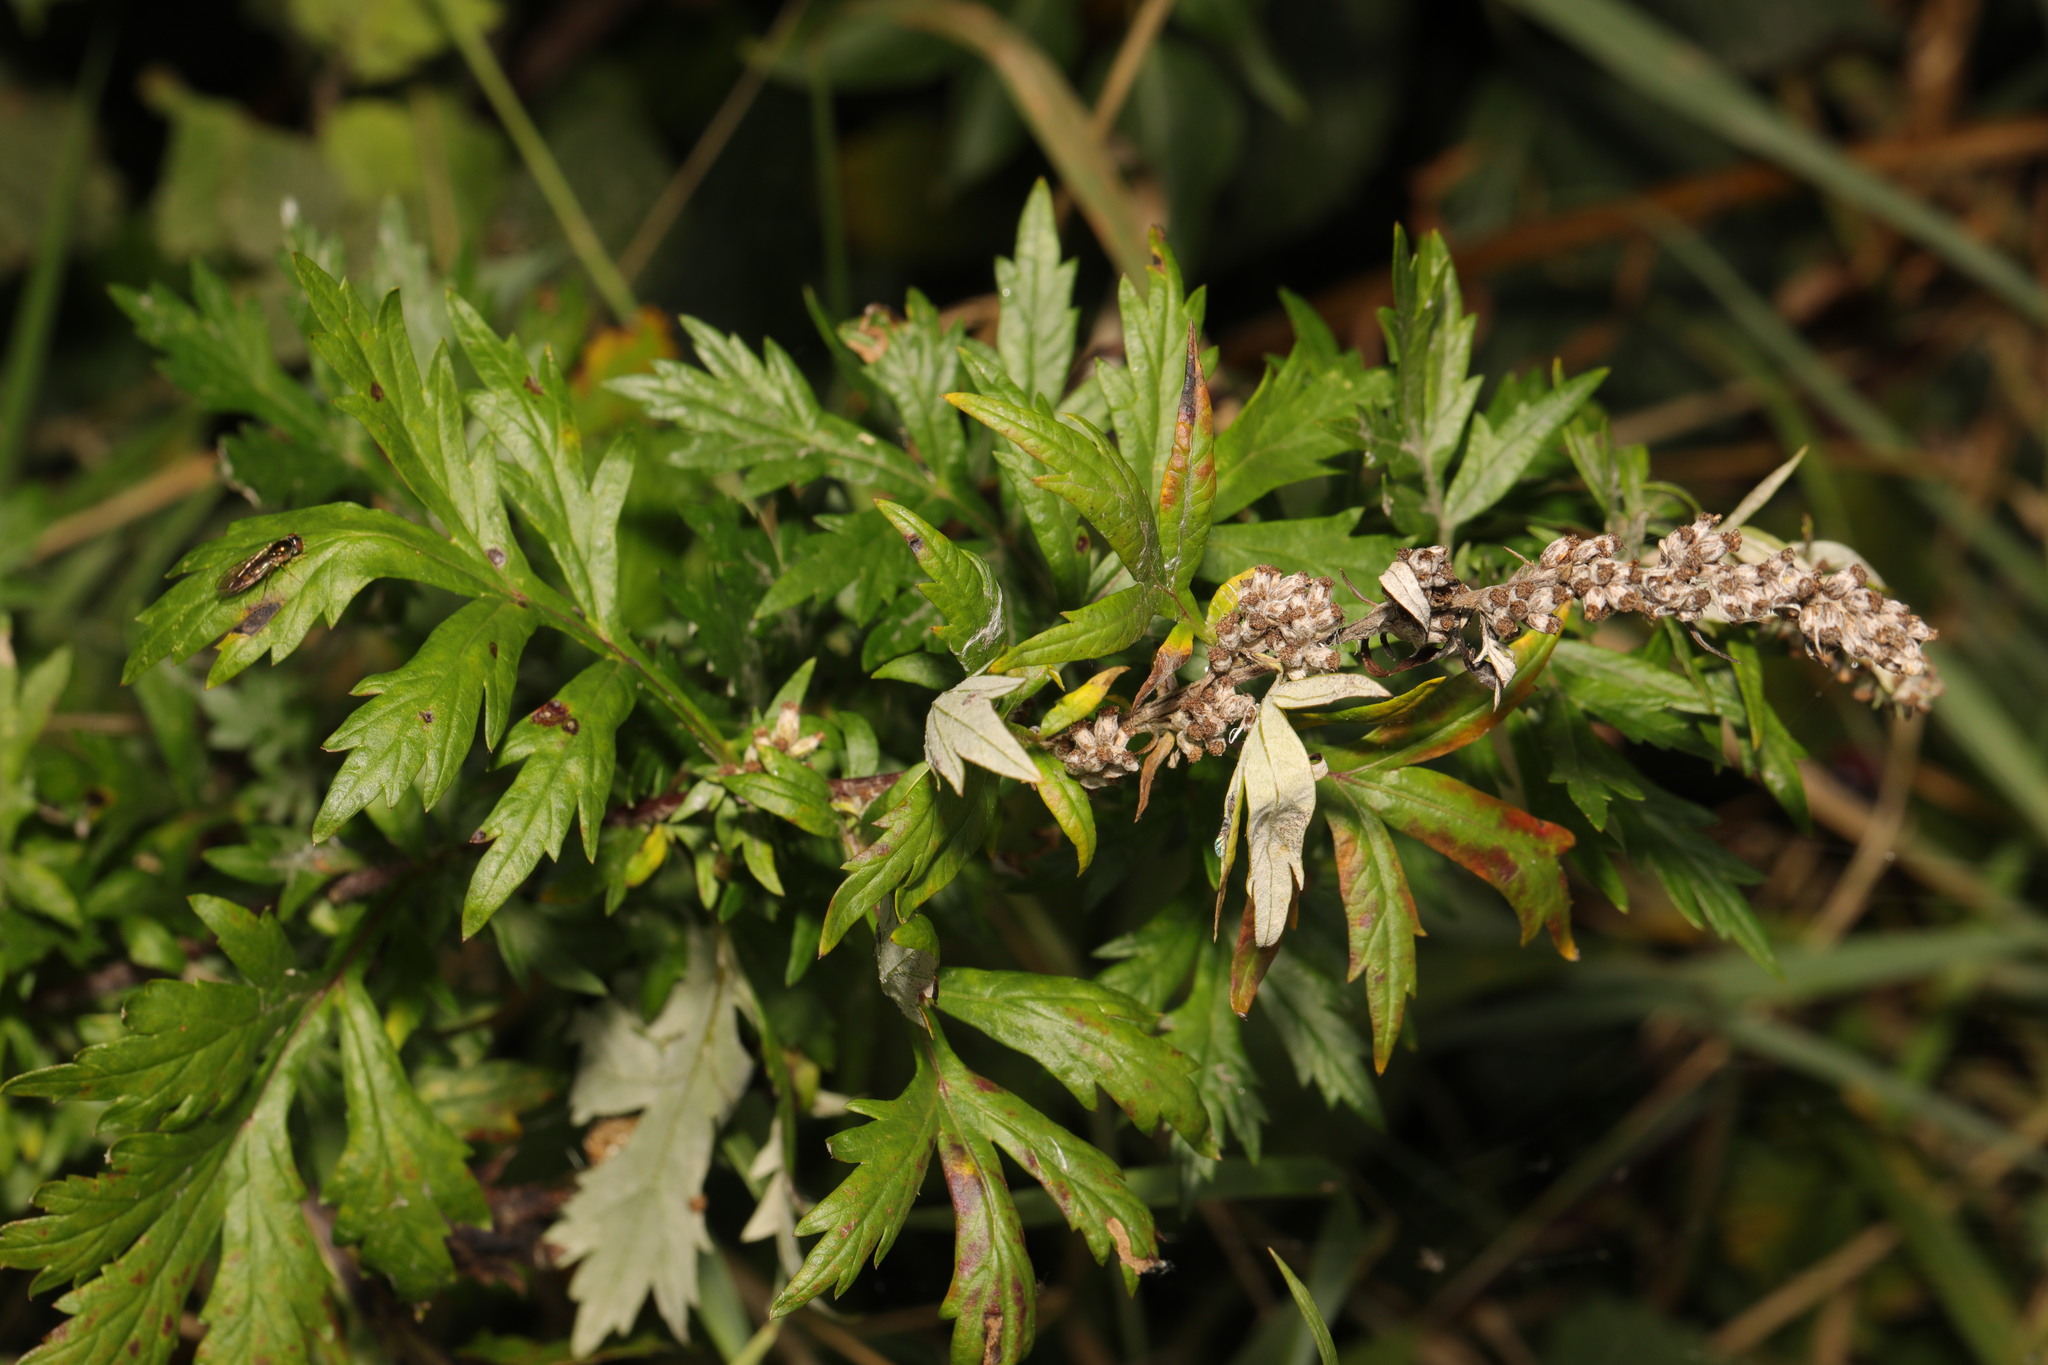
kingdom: Plantae
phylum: Tracheophyta
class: Magnoliopsida
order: Asterales
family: Asteraceae
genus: Artemisia
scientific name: Artemisia vulgaris
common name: Mugwort
